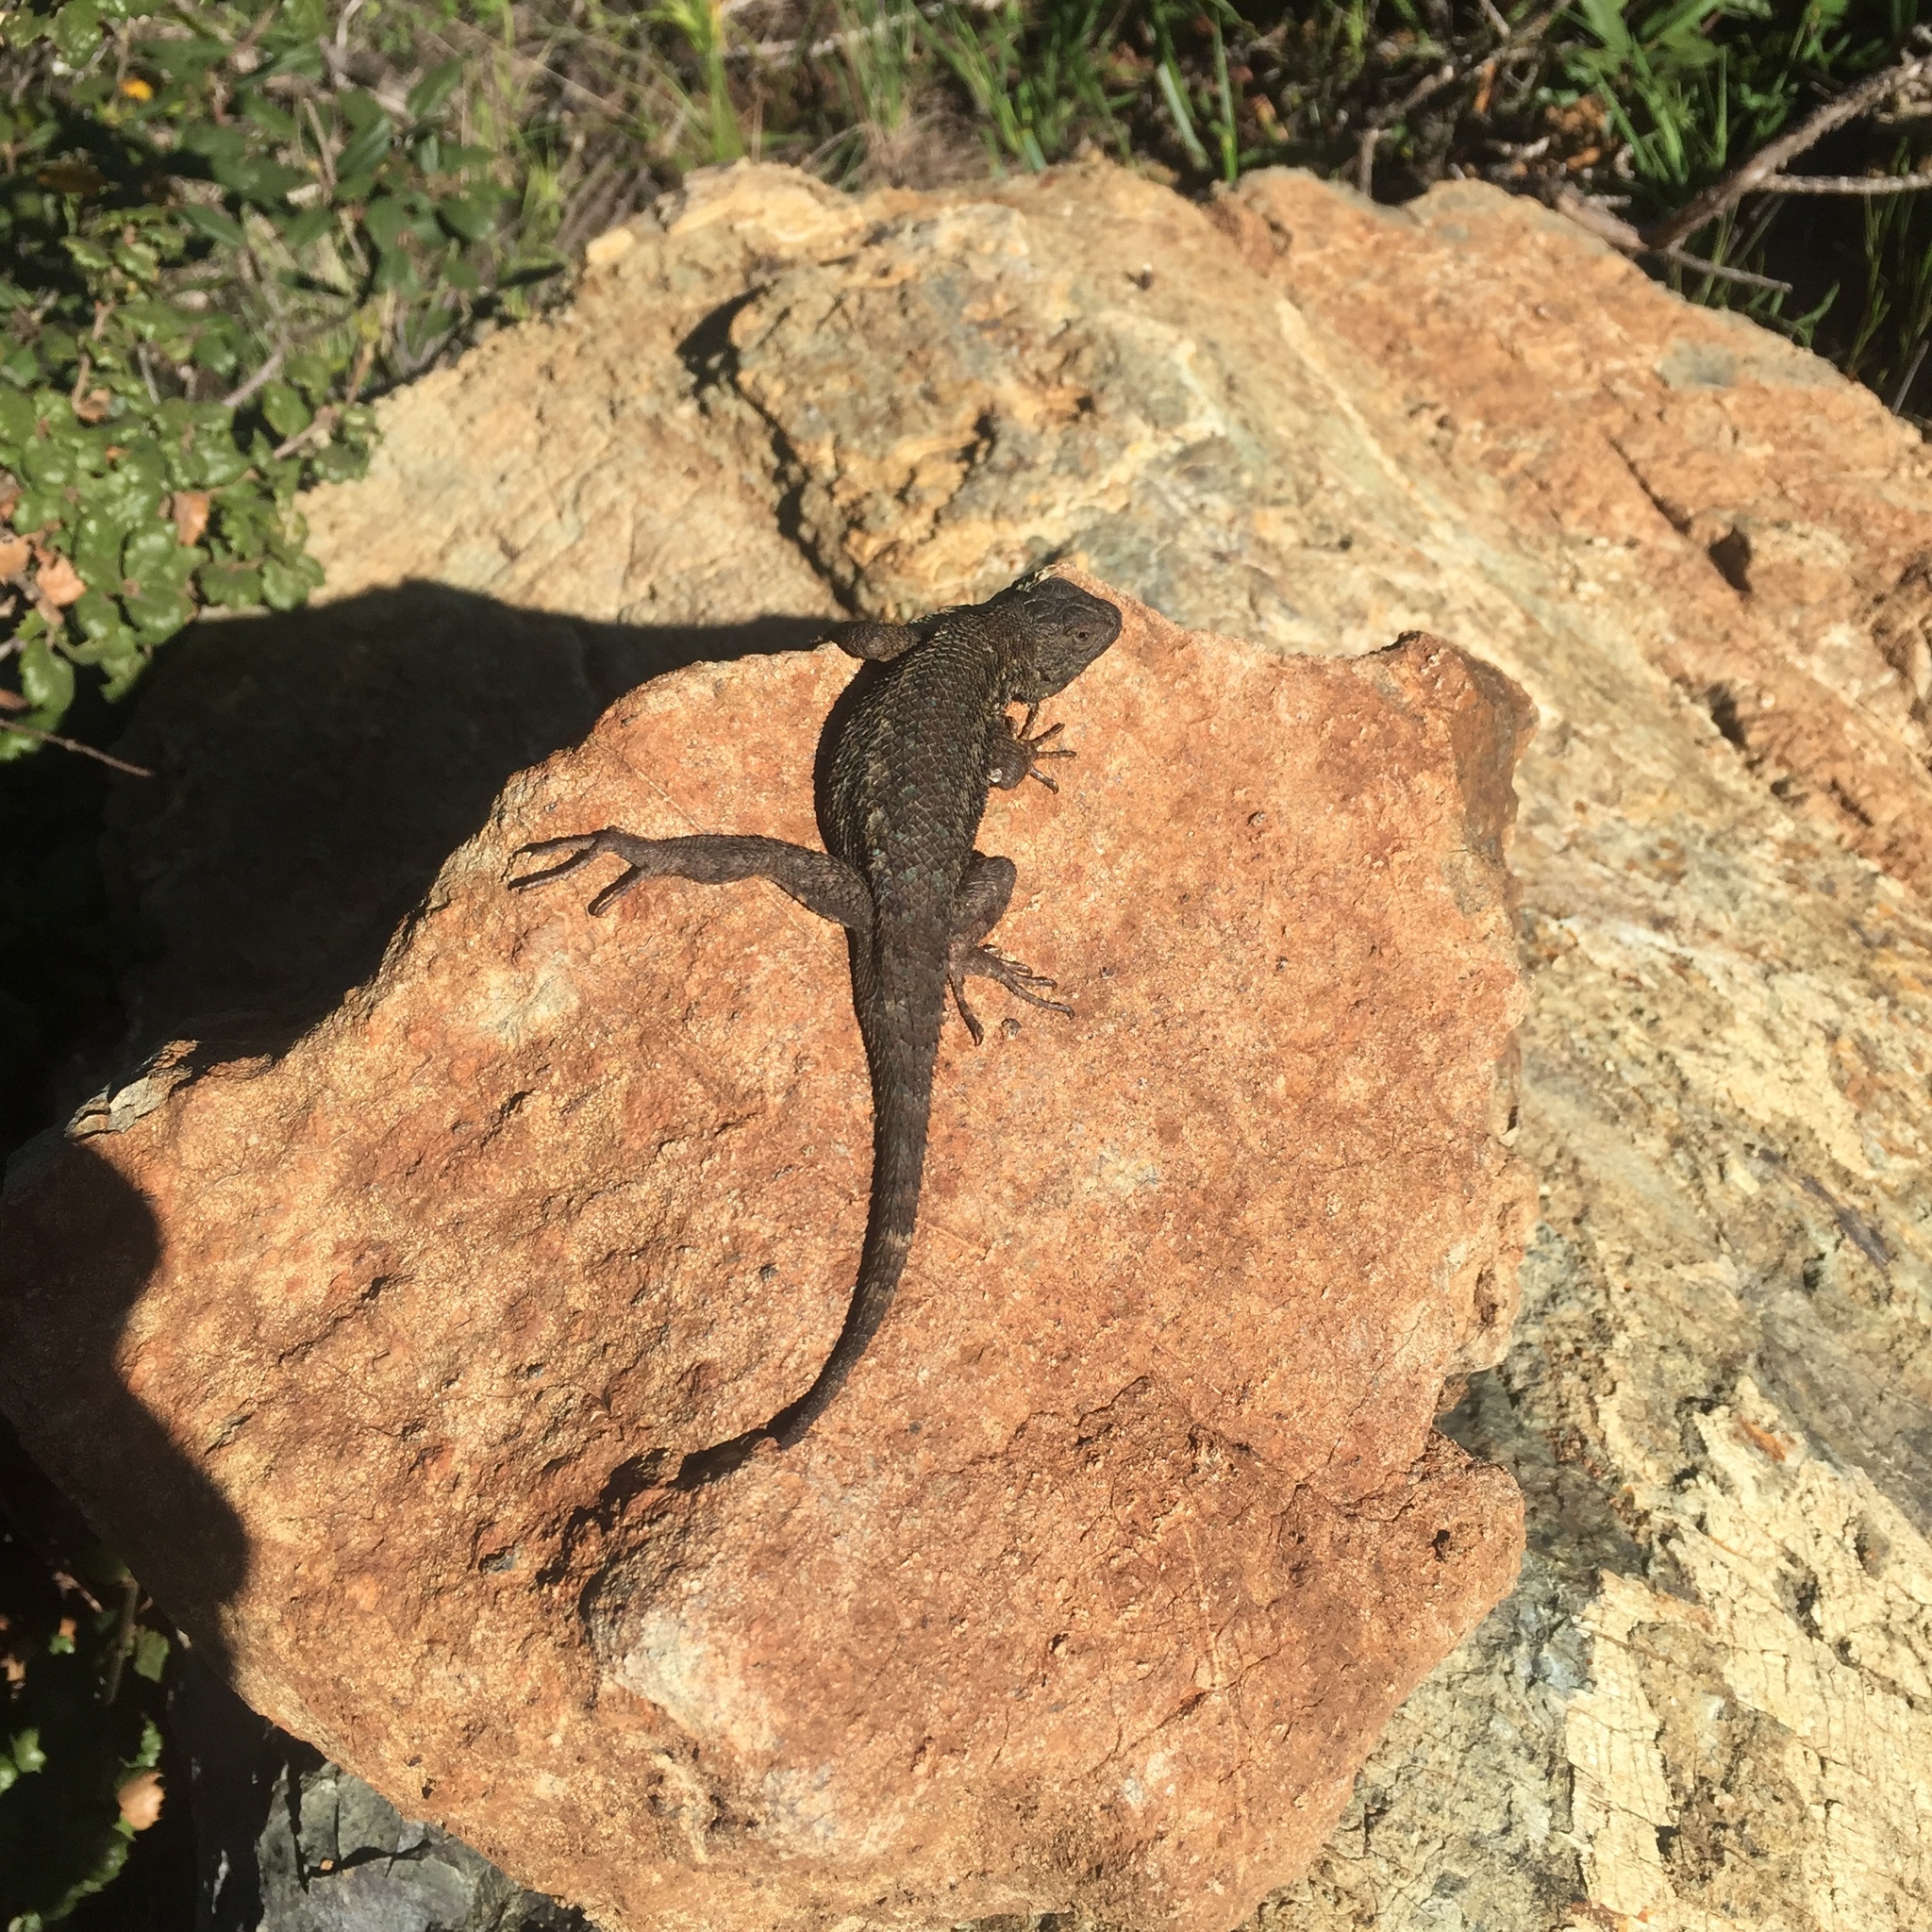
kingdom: Animalia
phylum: Chordata
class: Squamata
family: Phrynosomatidae
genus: Sceloporus
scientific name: Sceloporus occidentalis
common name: Western fence lizard
